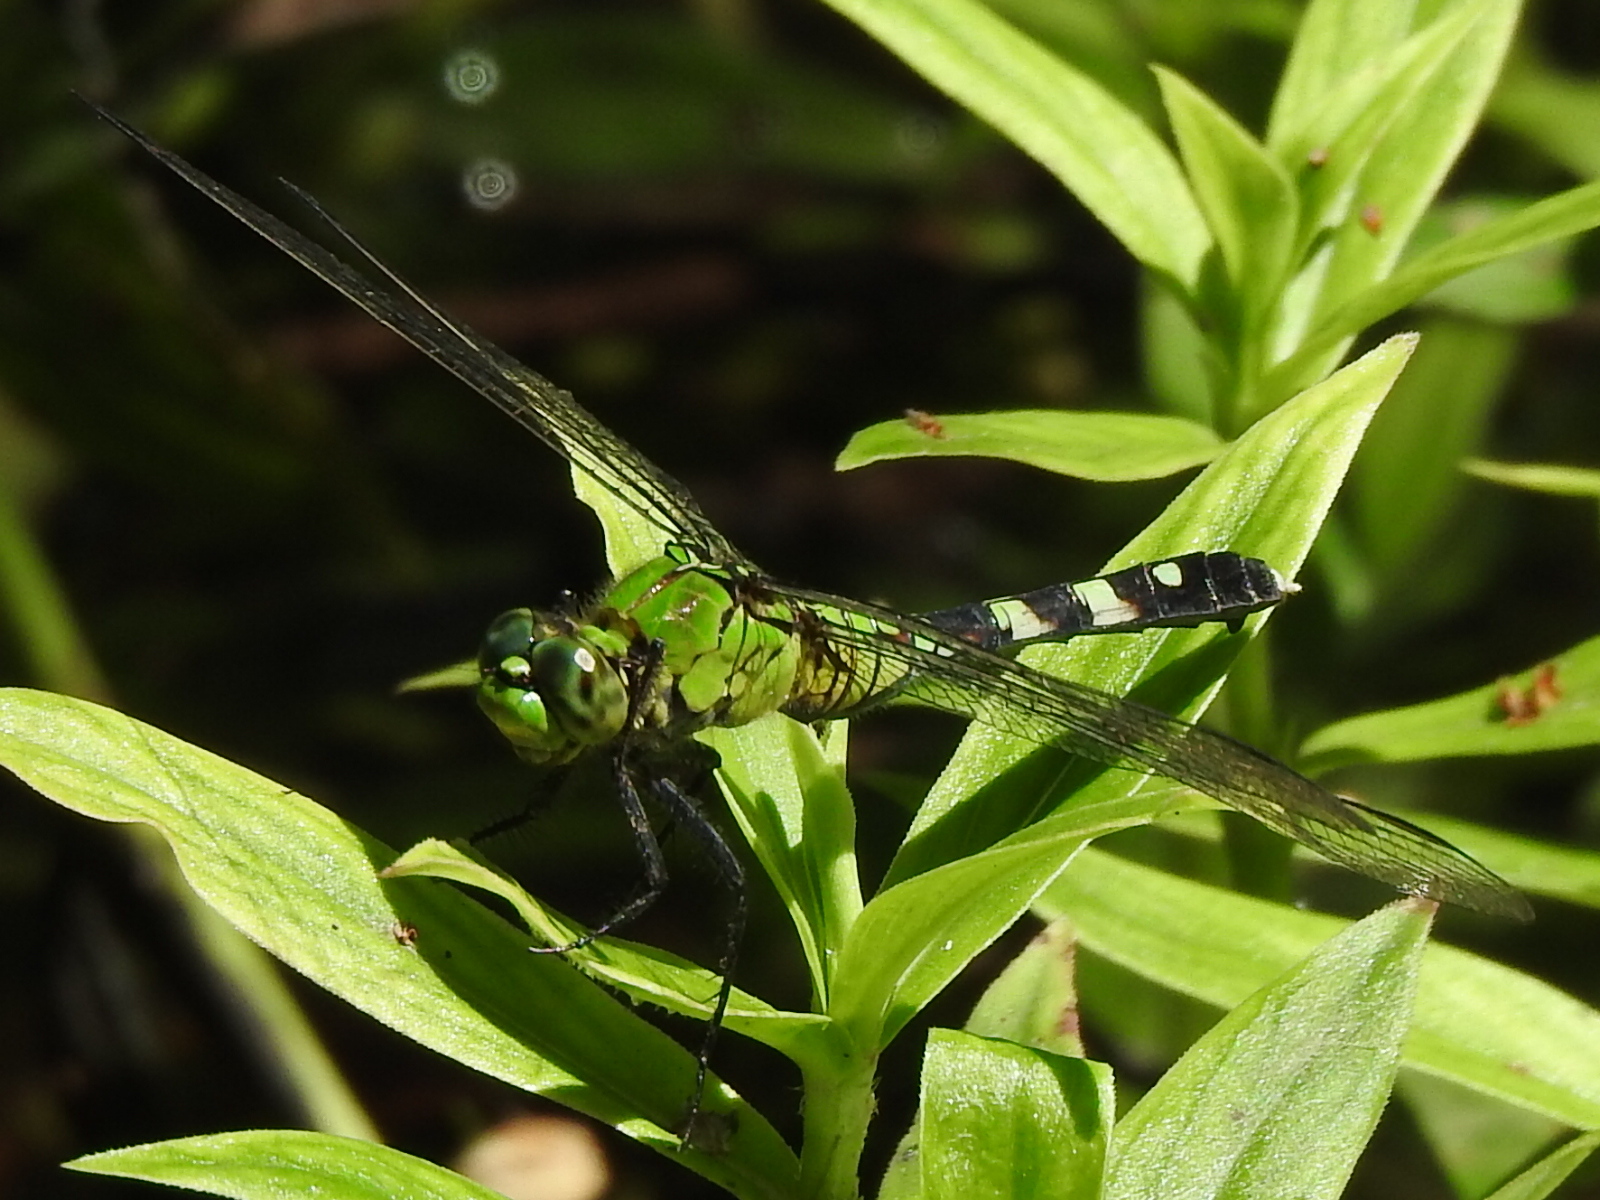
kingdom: Animalia
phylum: Arthropoda
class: Insecta
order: Odonata
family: Libellulidae
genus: Erythemis
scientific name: Erythemis simplicicollis
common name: Eastern pondhawk
